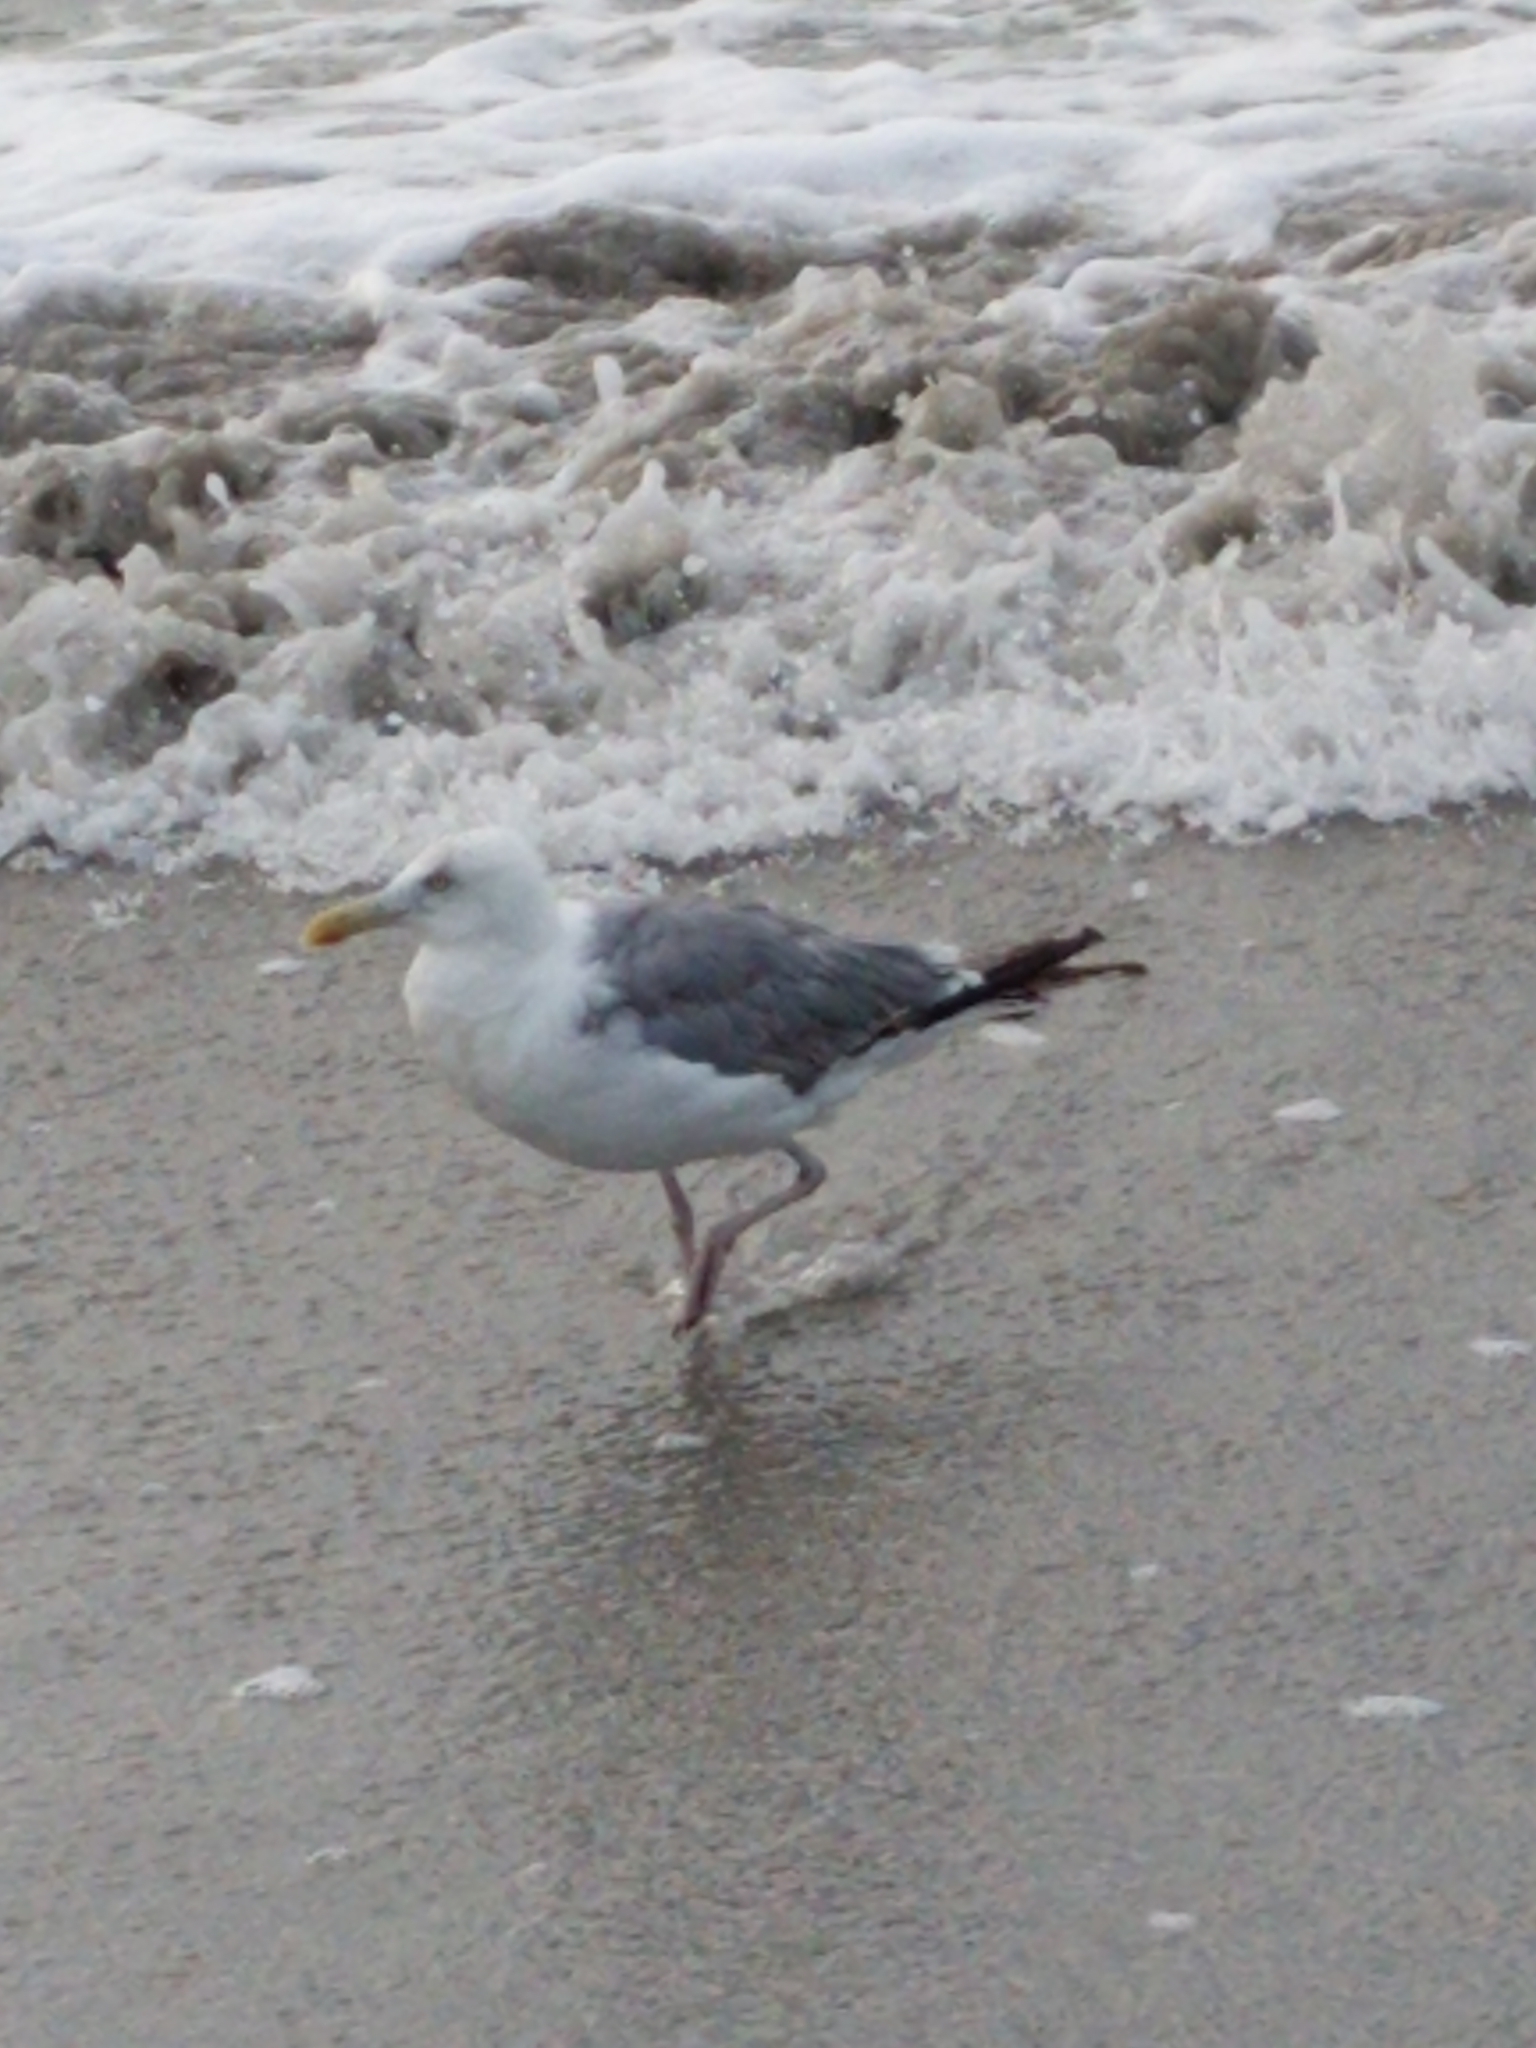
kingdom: Animalia
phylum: Chordata
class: Aves
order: Charadriiformes
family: Laridae
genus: Larus
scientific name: Larus argentatus
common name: Herring gull
